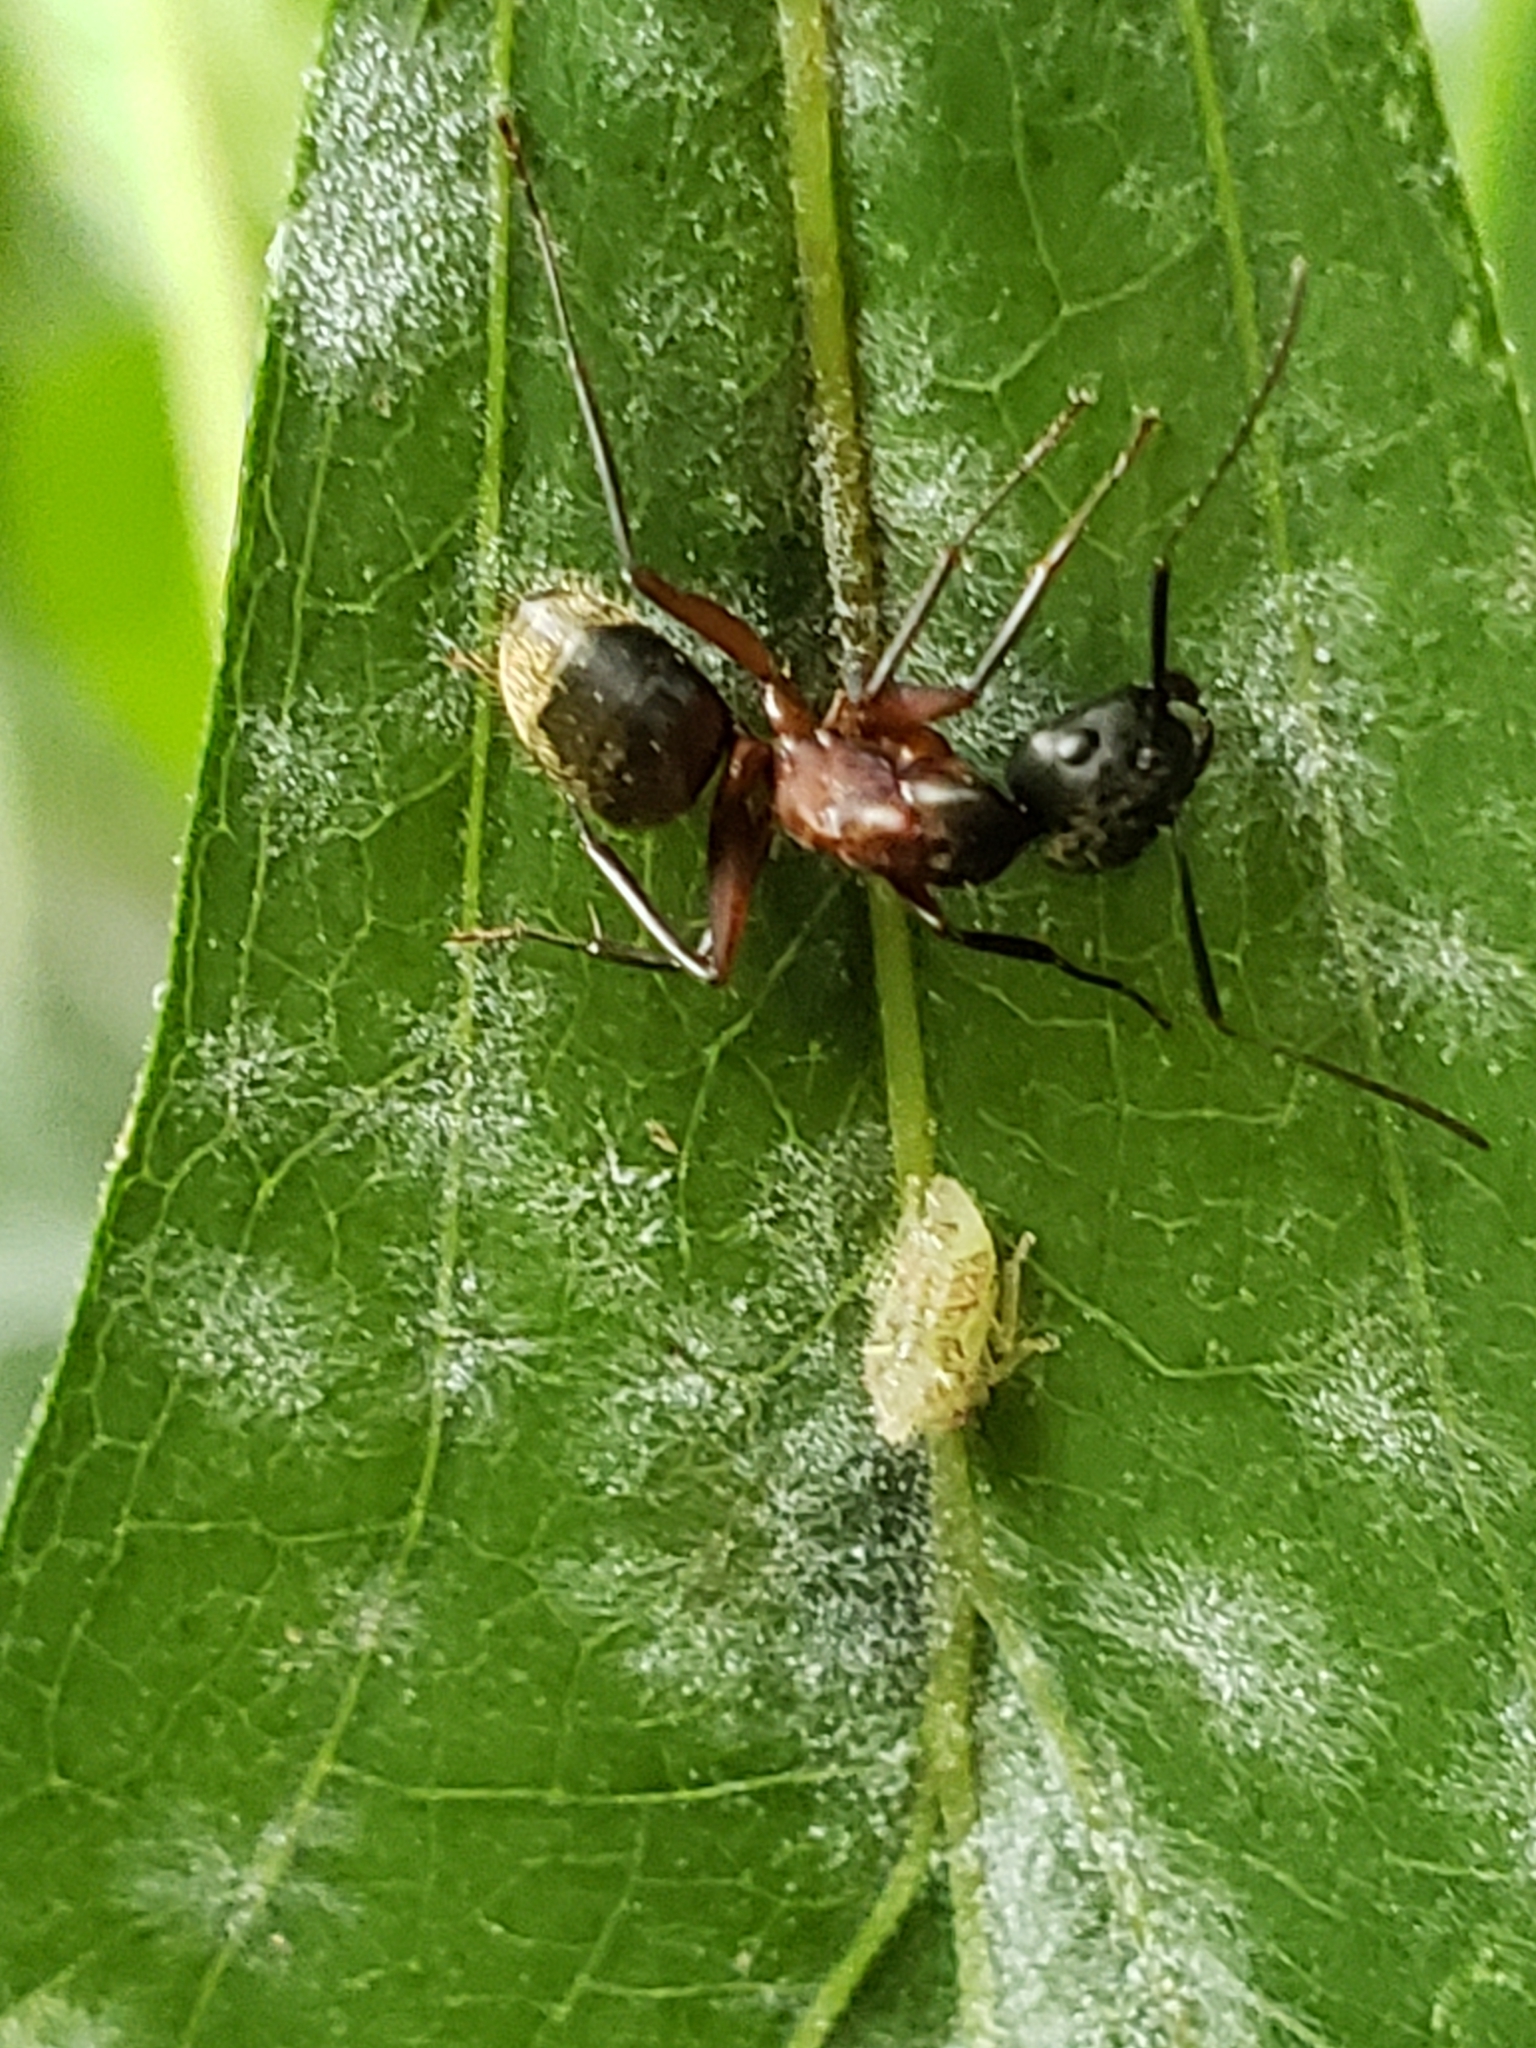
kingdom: Animalia
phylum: Arthropoda
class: Insecta
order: Hymenoptera
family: Formicidae
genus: Camponotus
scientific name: Camponotus chromaiodes
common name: Red carpenter ant
